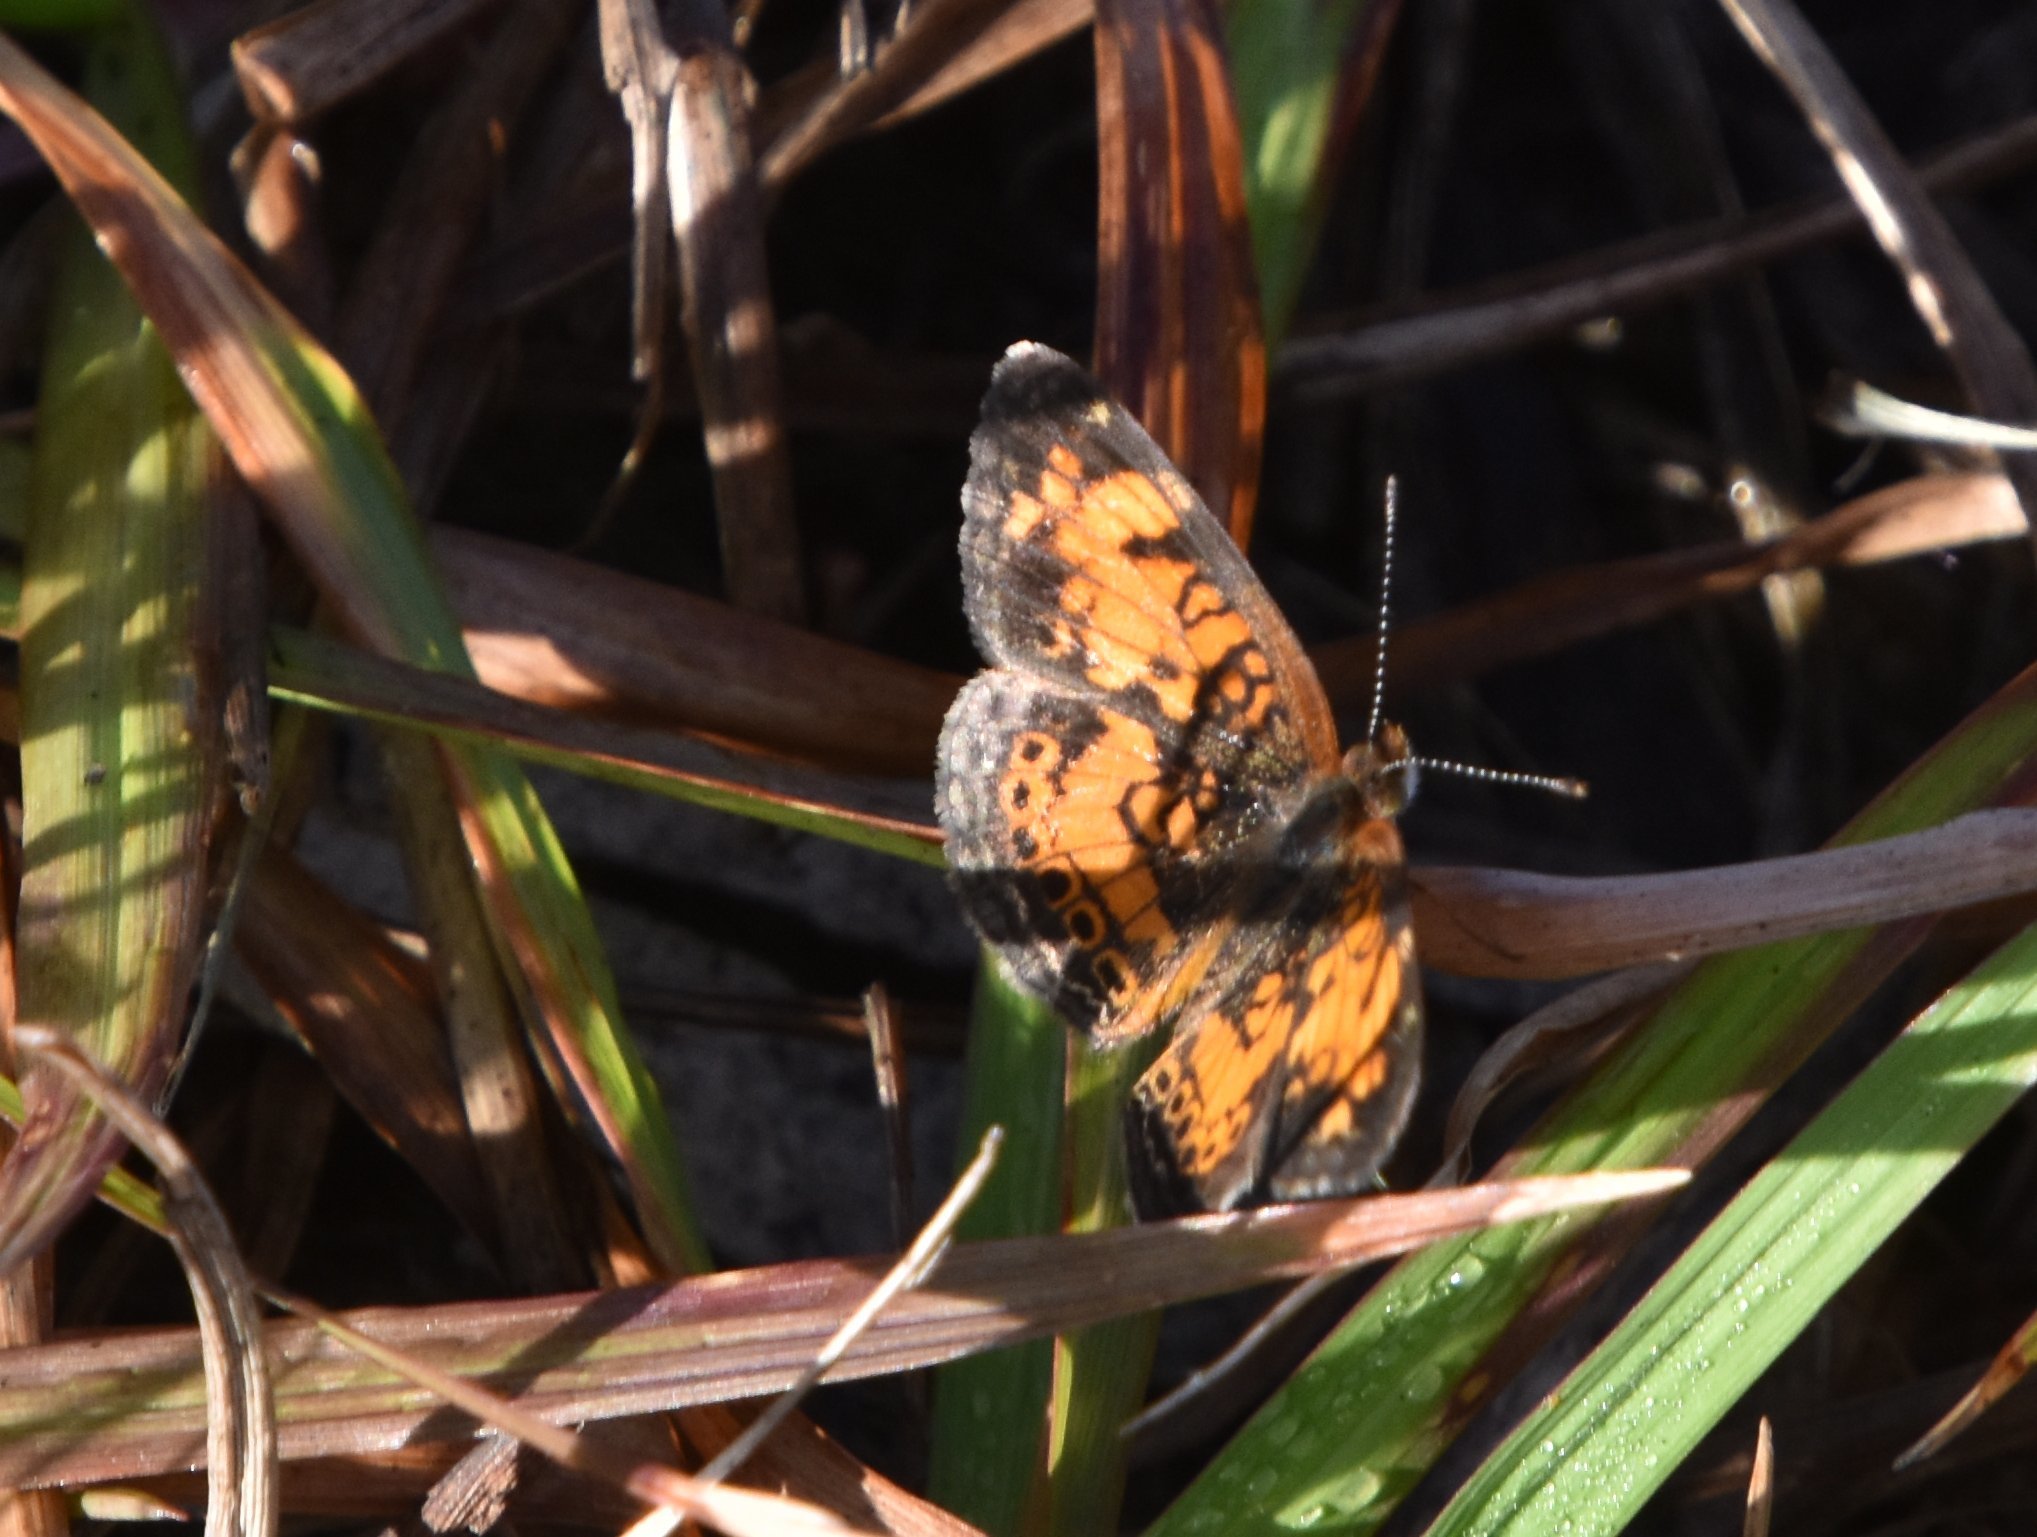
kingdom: Animalia
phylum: Arthropoda
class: Insecta
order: Lepidoptera
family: Nymphalidae
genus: Phyciodes
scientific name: Phyciodes tharos
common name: Pearl crescent
